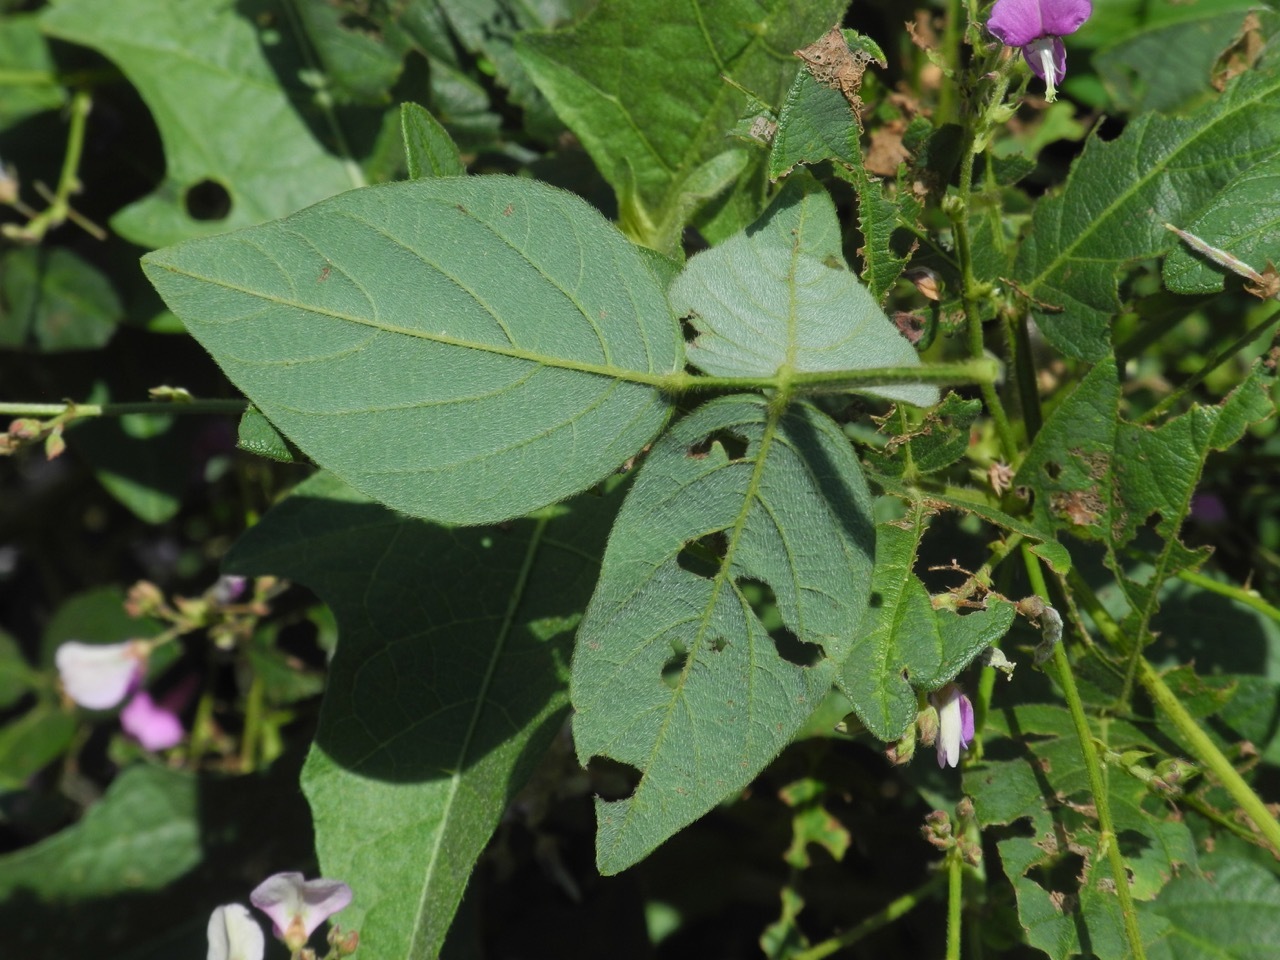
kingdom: Plantae
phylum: Tracheophyta
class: Magnoliopsida
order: Fabales
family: Fabaceae
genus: Desmodium
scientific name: Desmodium glabellum
